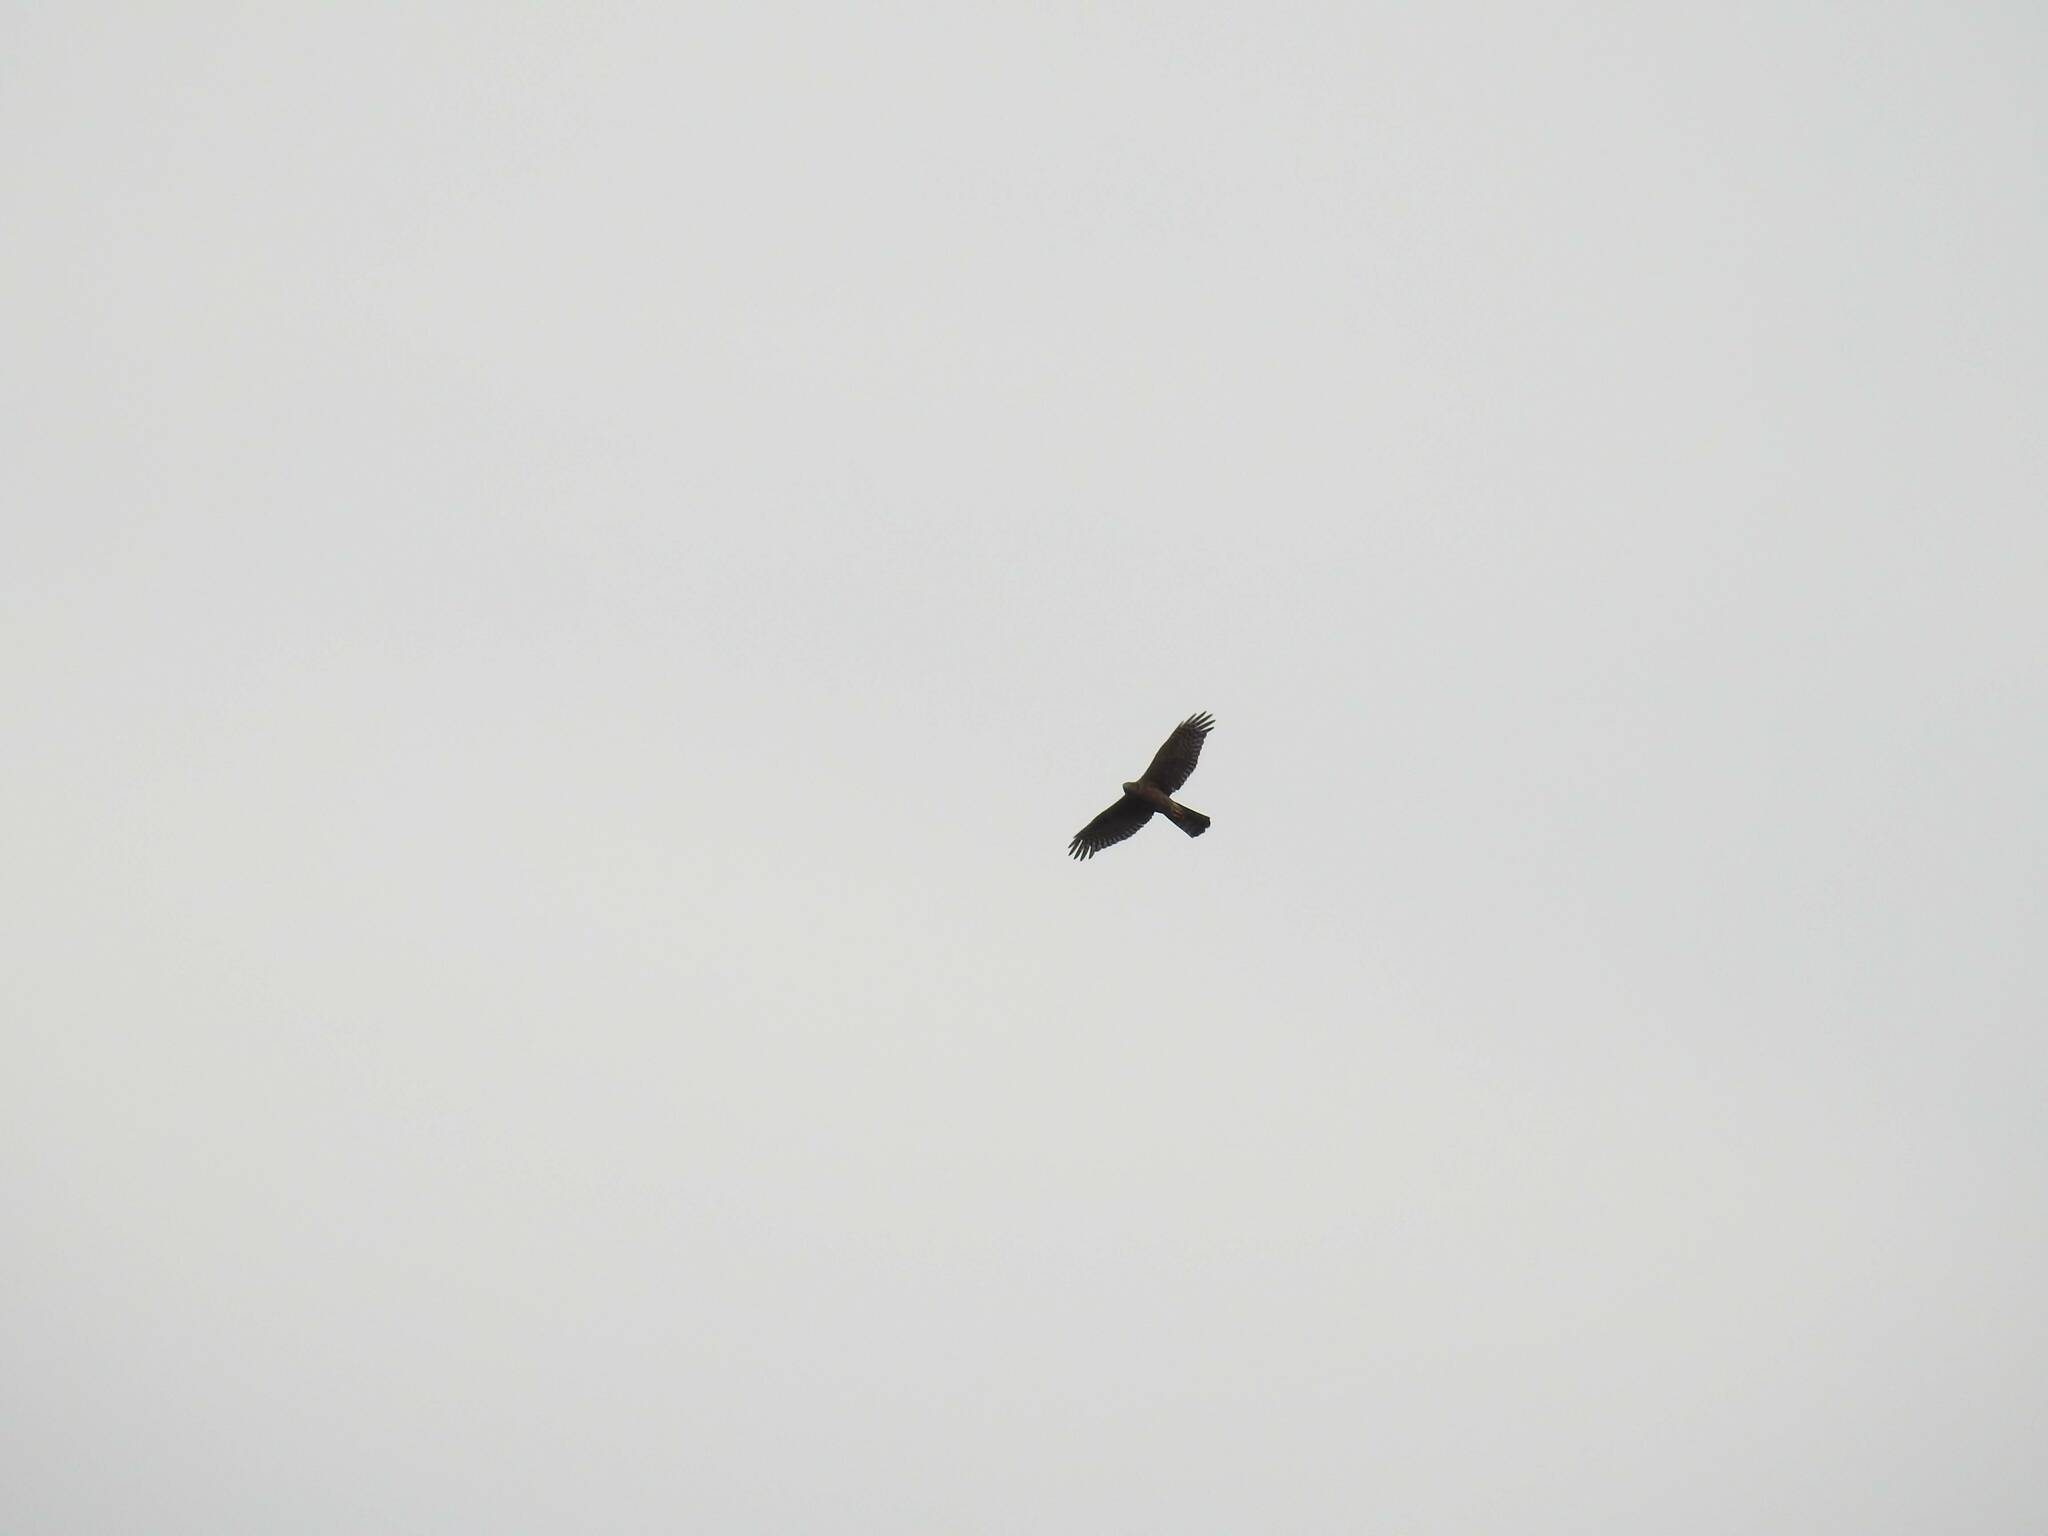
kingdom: Animalia
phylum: Chordata
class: Aves
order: Accipitriformes
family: Accipitridae
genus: Accipiter
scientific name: Accipiter nisus
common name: Eurasian sparrowhawk
